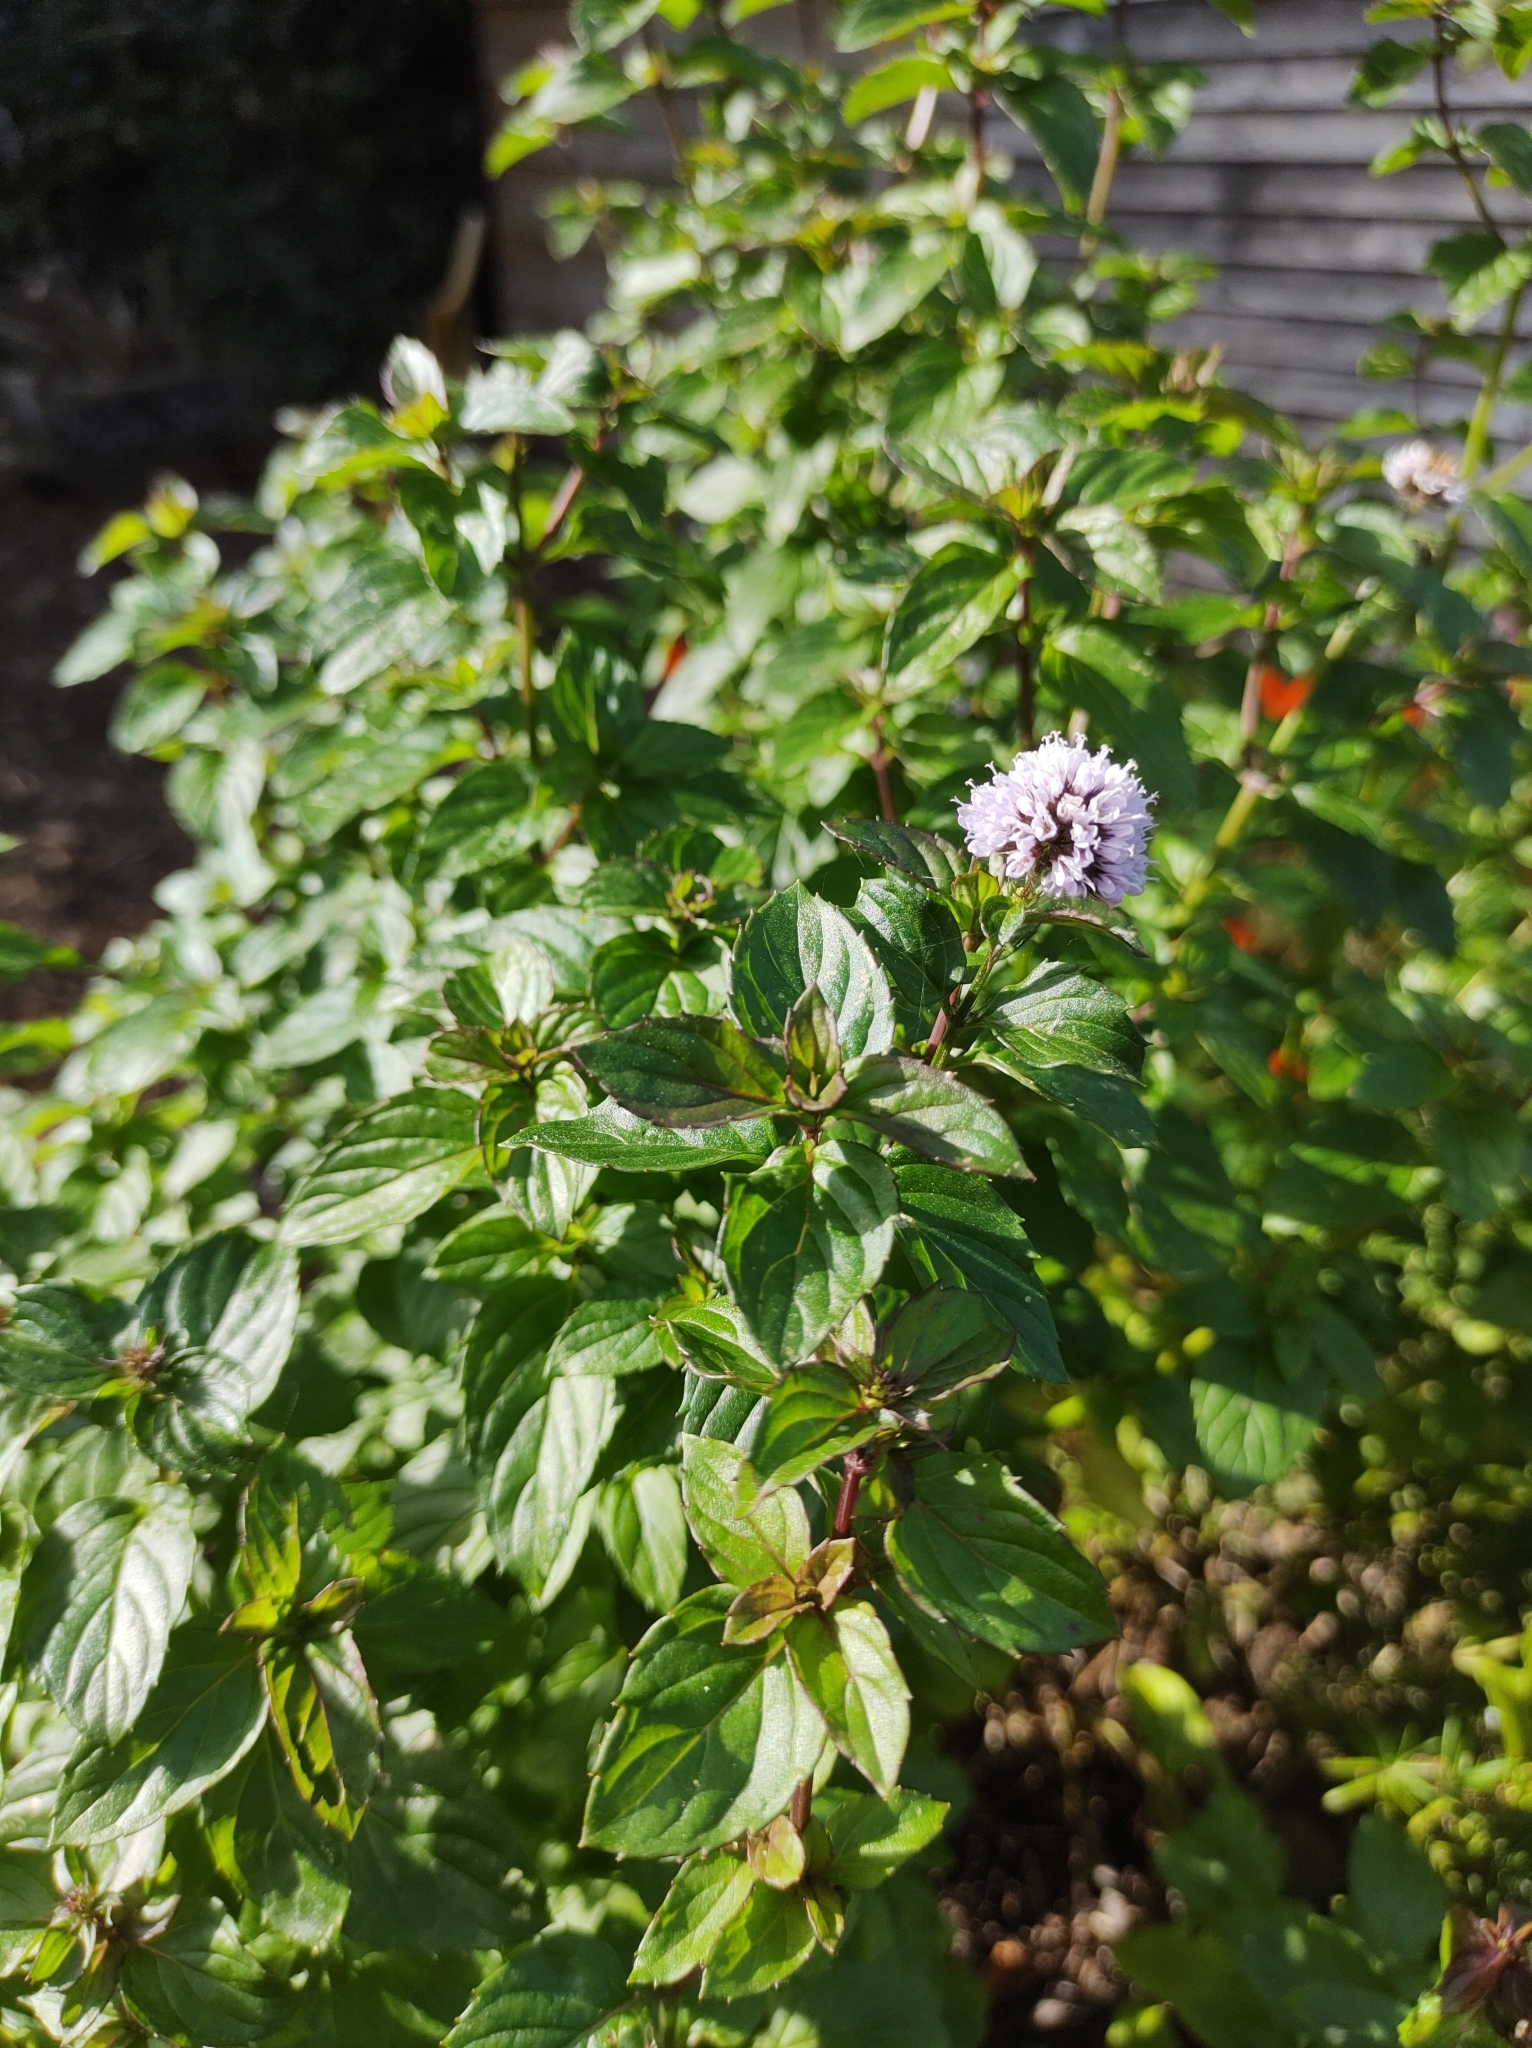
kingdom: Plantae
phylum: Tracheophyta
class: Magnoliopsida
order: Lamiales
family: Lamiaceae
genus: Mentha
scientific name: Mentha aquatica
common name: Water mint
